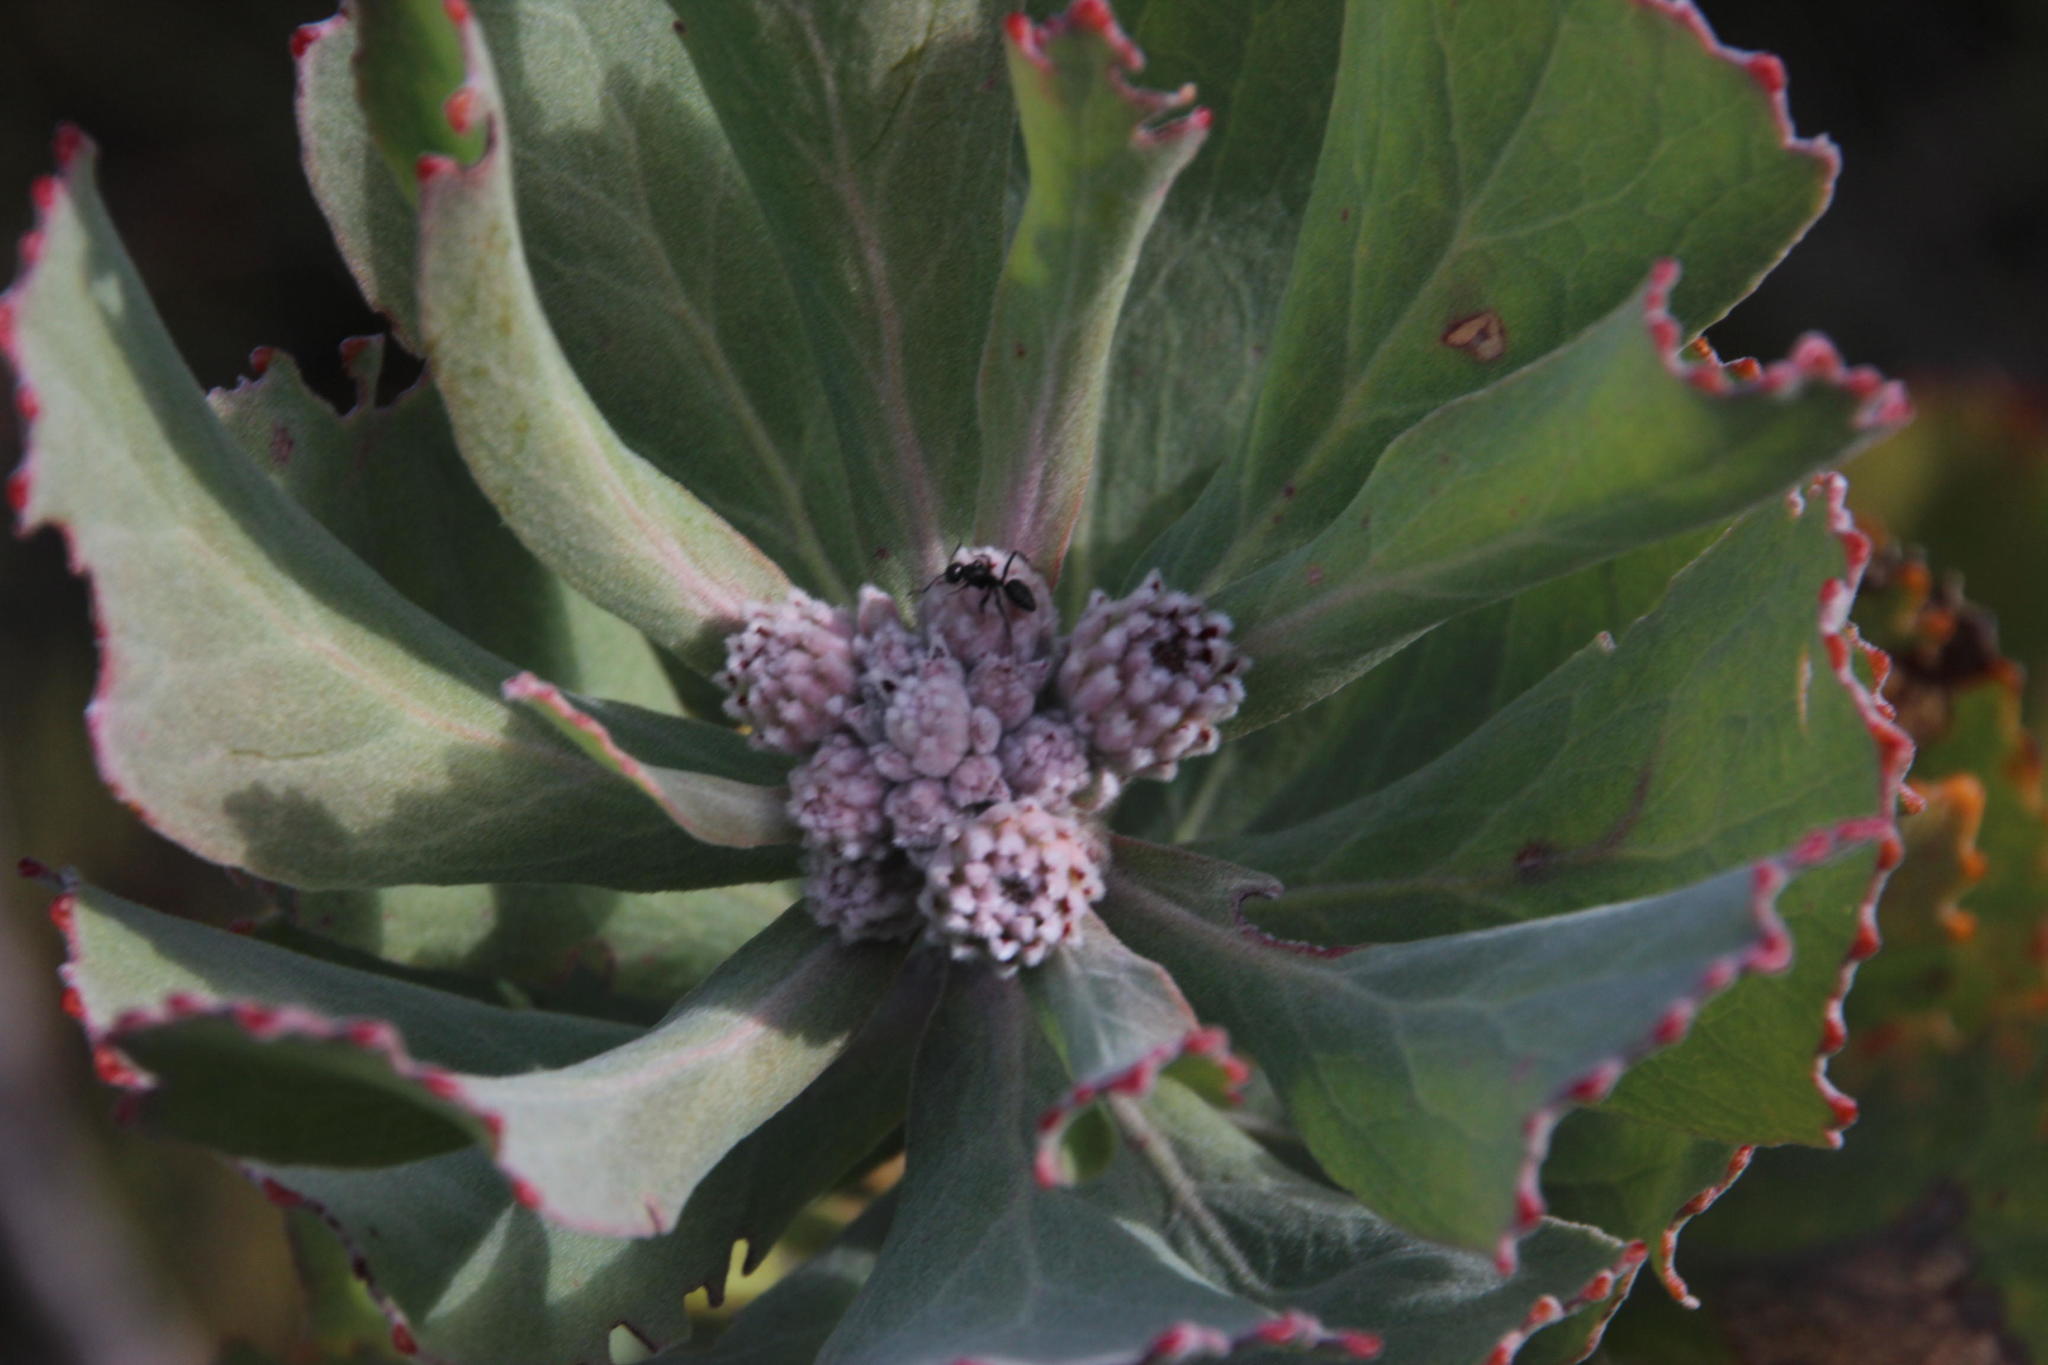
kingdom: Plantae
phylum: Tracheophyta
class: Magnoliopsida
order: Proteales
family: Proteaceae
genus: Leucospermum
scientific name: Leucospermum winteri
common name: Riversdale pincushion
